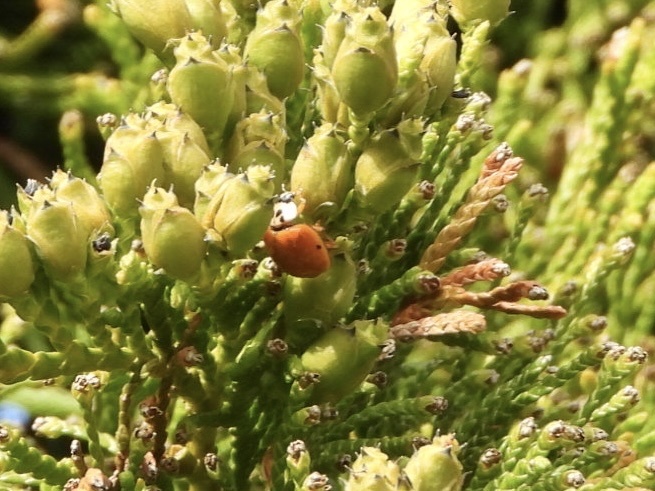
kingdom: Animalia
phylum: Arthropoda
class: Insecta
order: Coleoptera
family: Coccinellidae
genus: Harmonia
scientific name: Harmonia axyridis
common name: Harlequin ladybird
